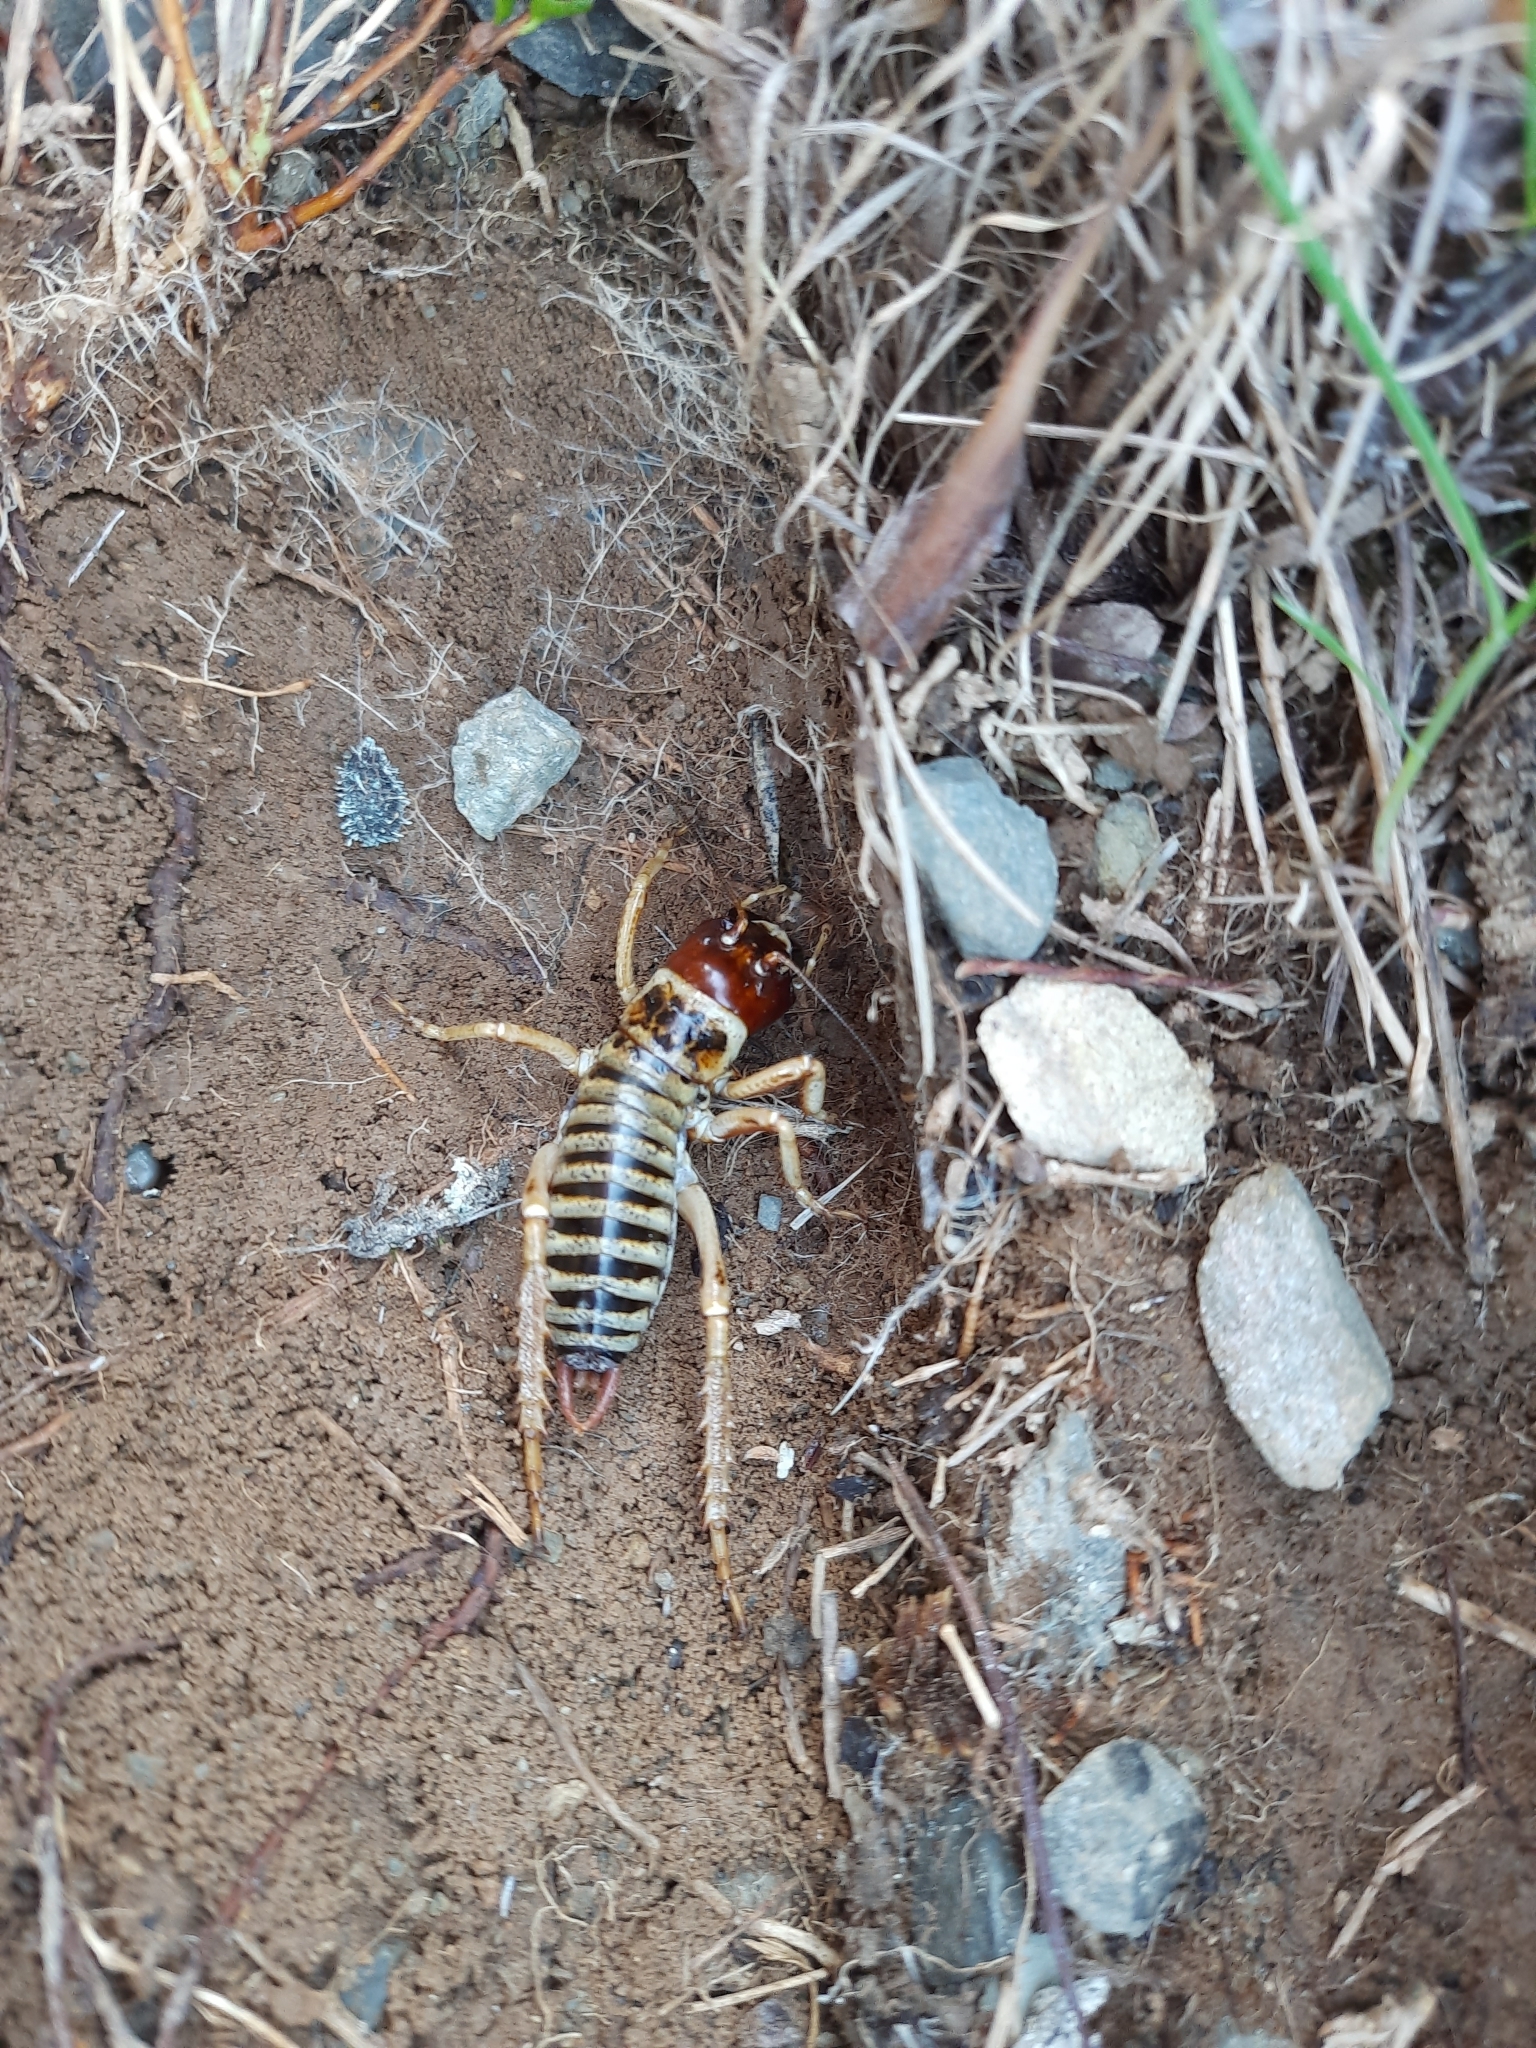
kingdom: Animalia
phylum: Arthropoda
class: Insecta
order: Orthoptera
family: Anostostomatidae
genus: Hemideina
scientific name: Hemideina maori
